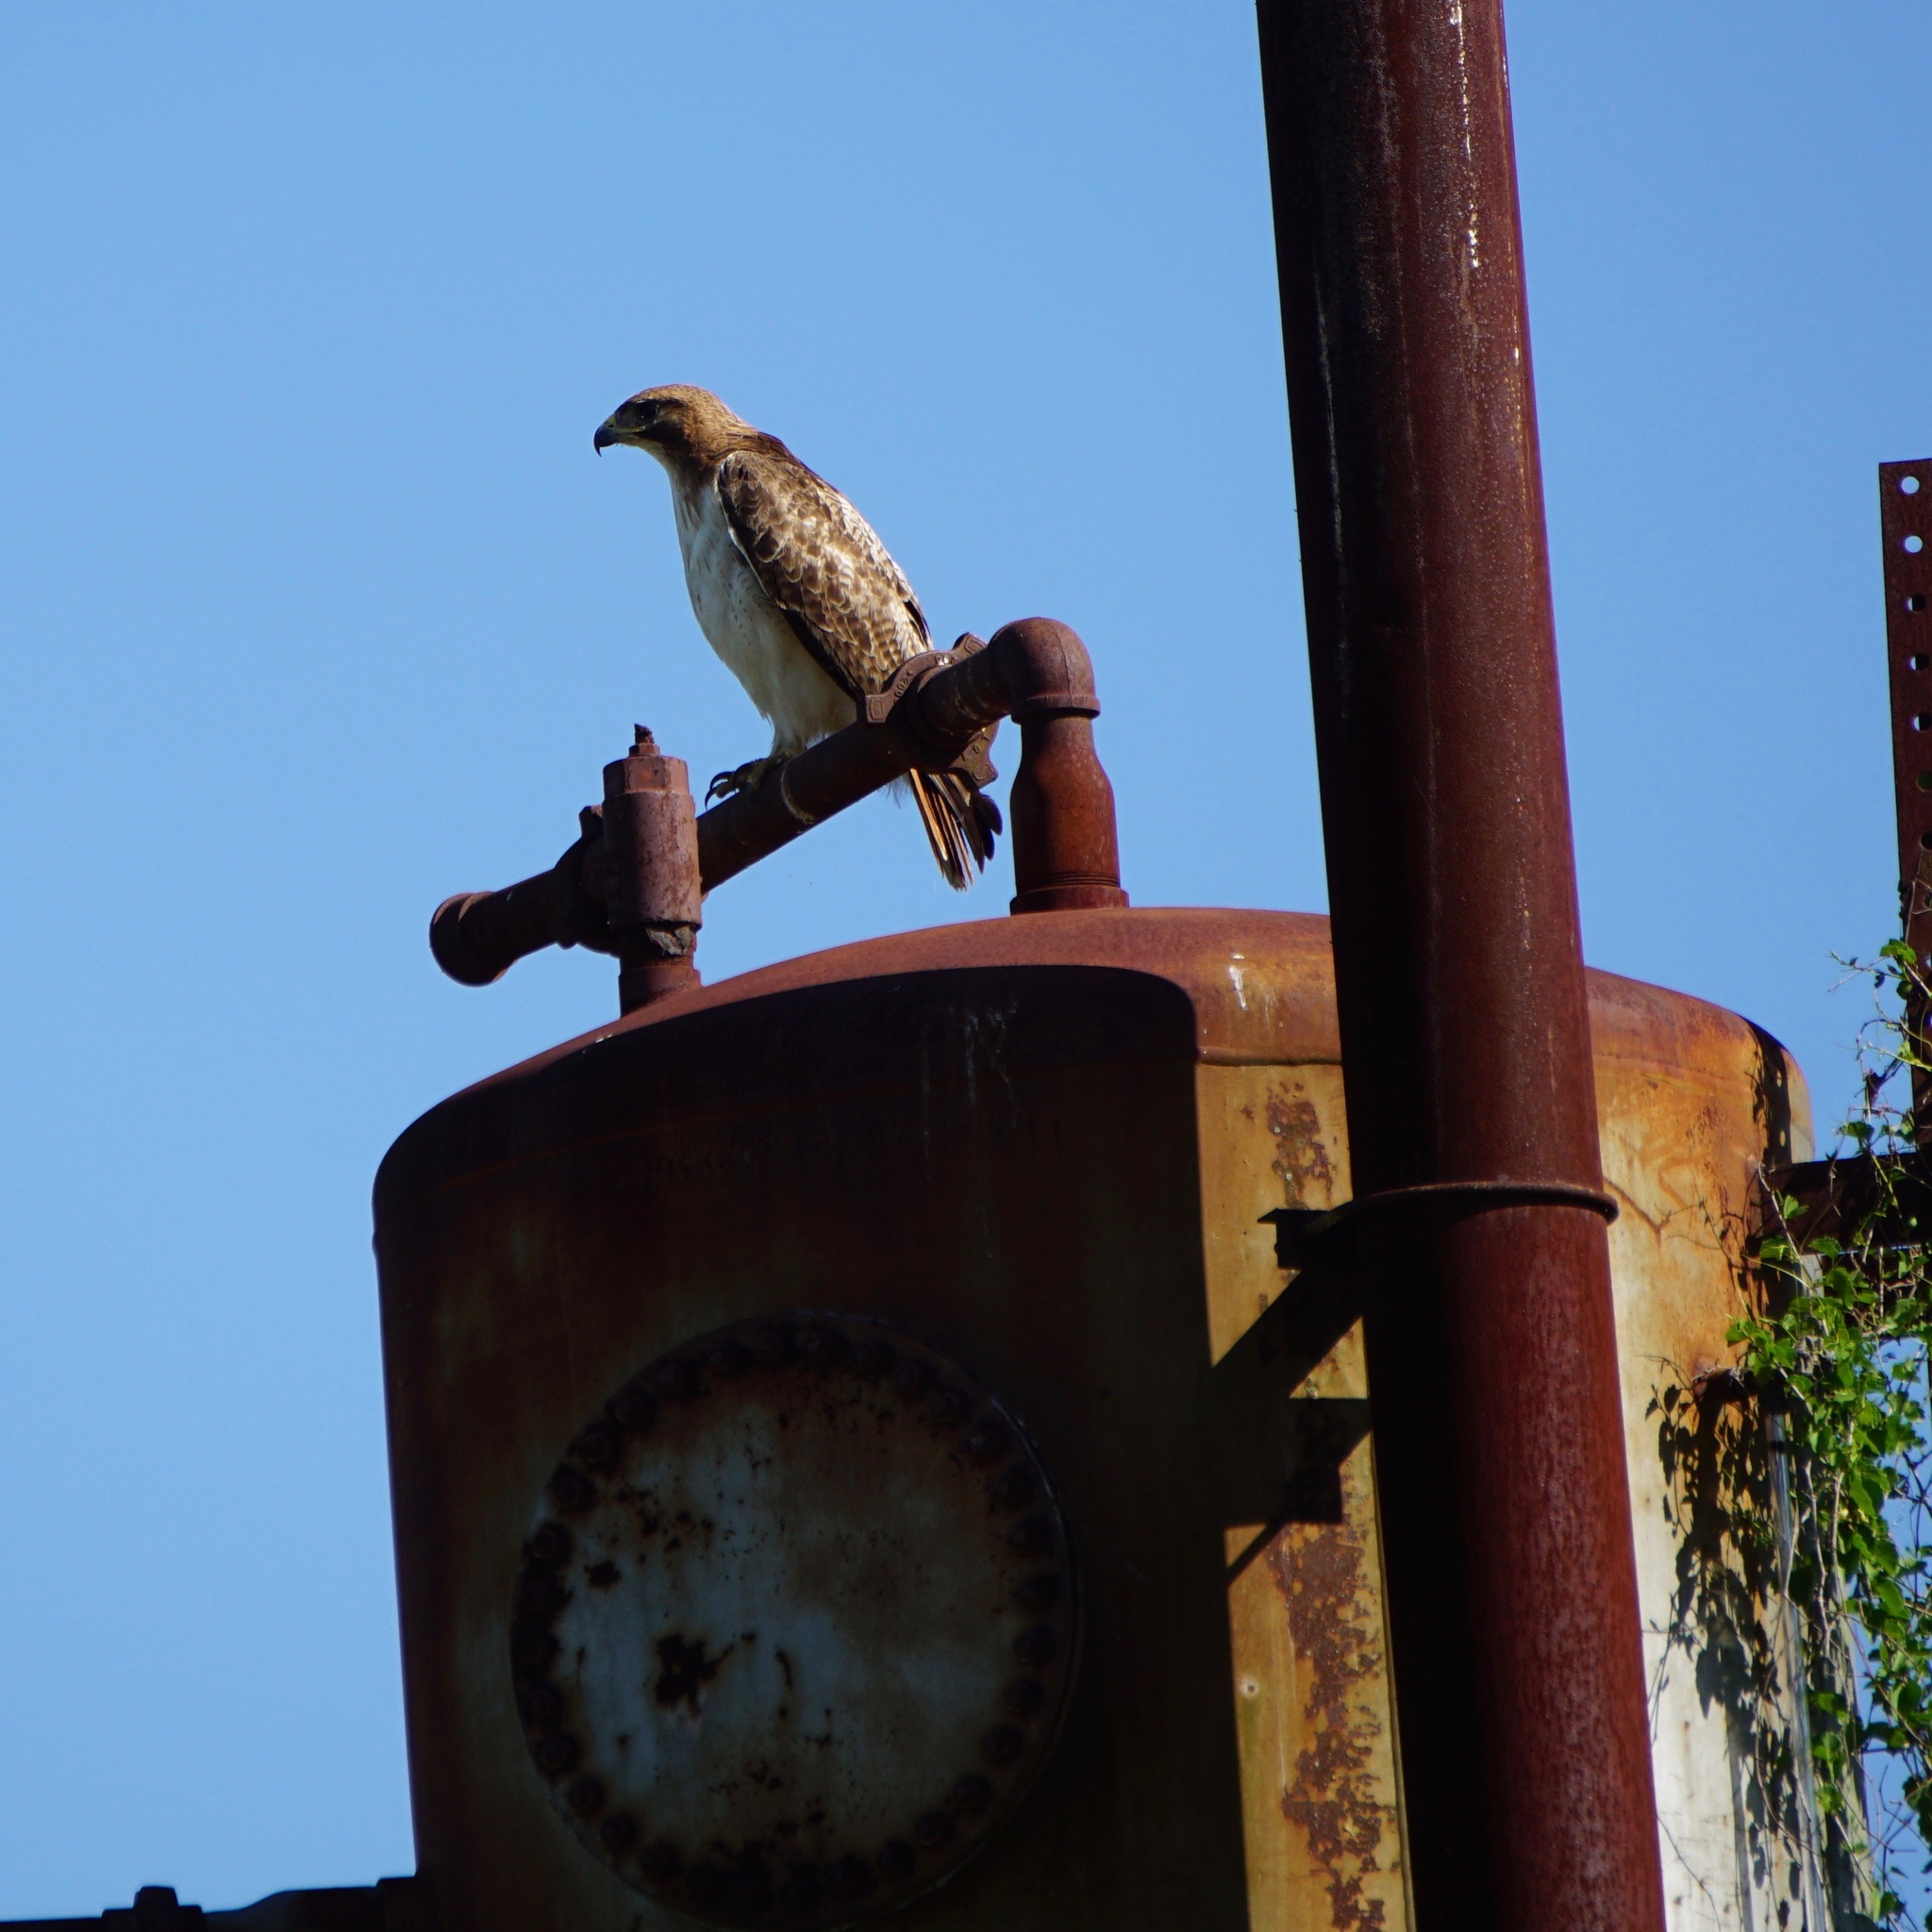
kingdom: Animalia
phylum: Chordata
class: Aves
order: Accipitriformes
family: Accipitridae
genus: Buteo
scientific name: Buteo jamaicensis
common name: Red-tailed hawk
